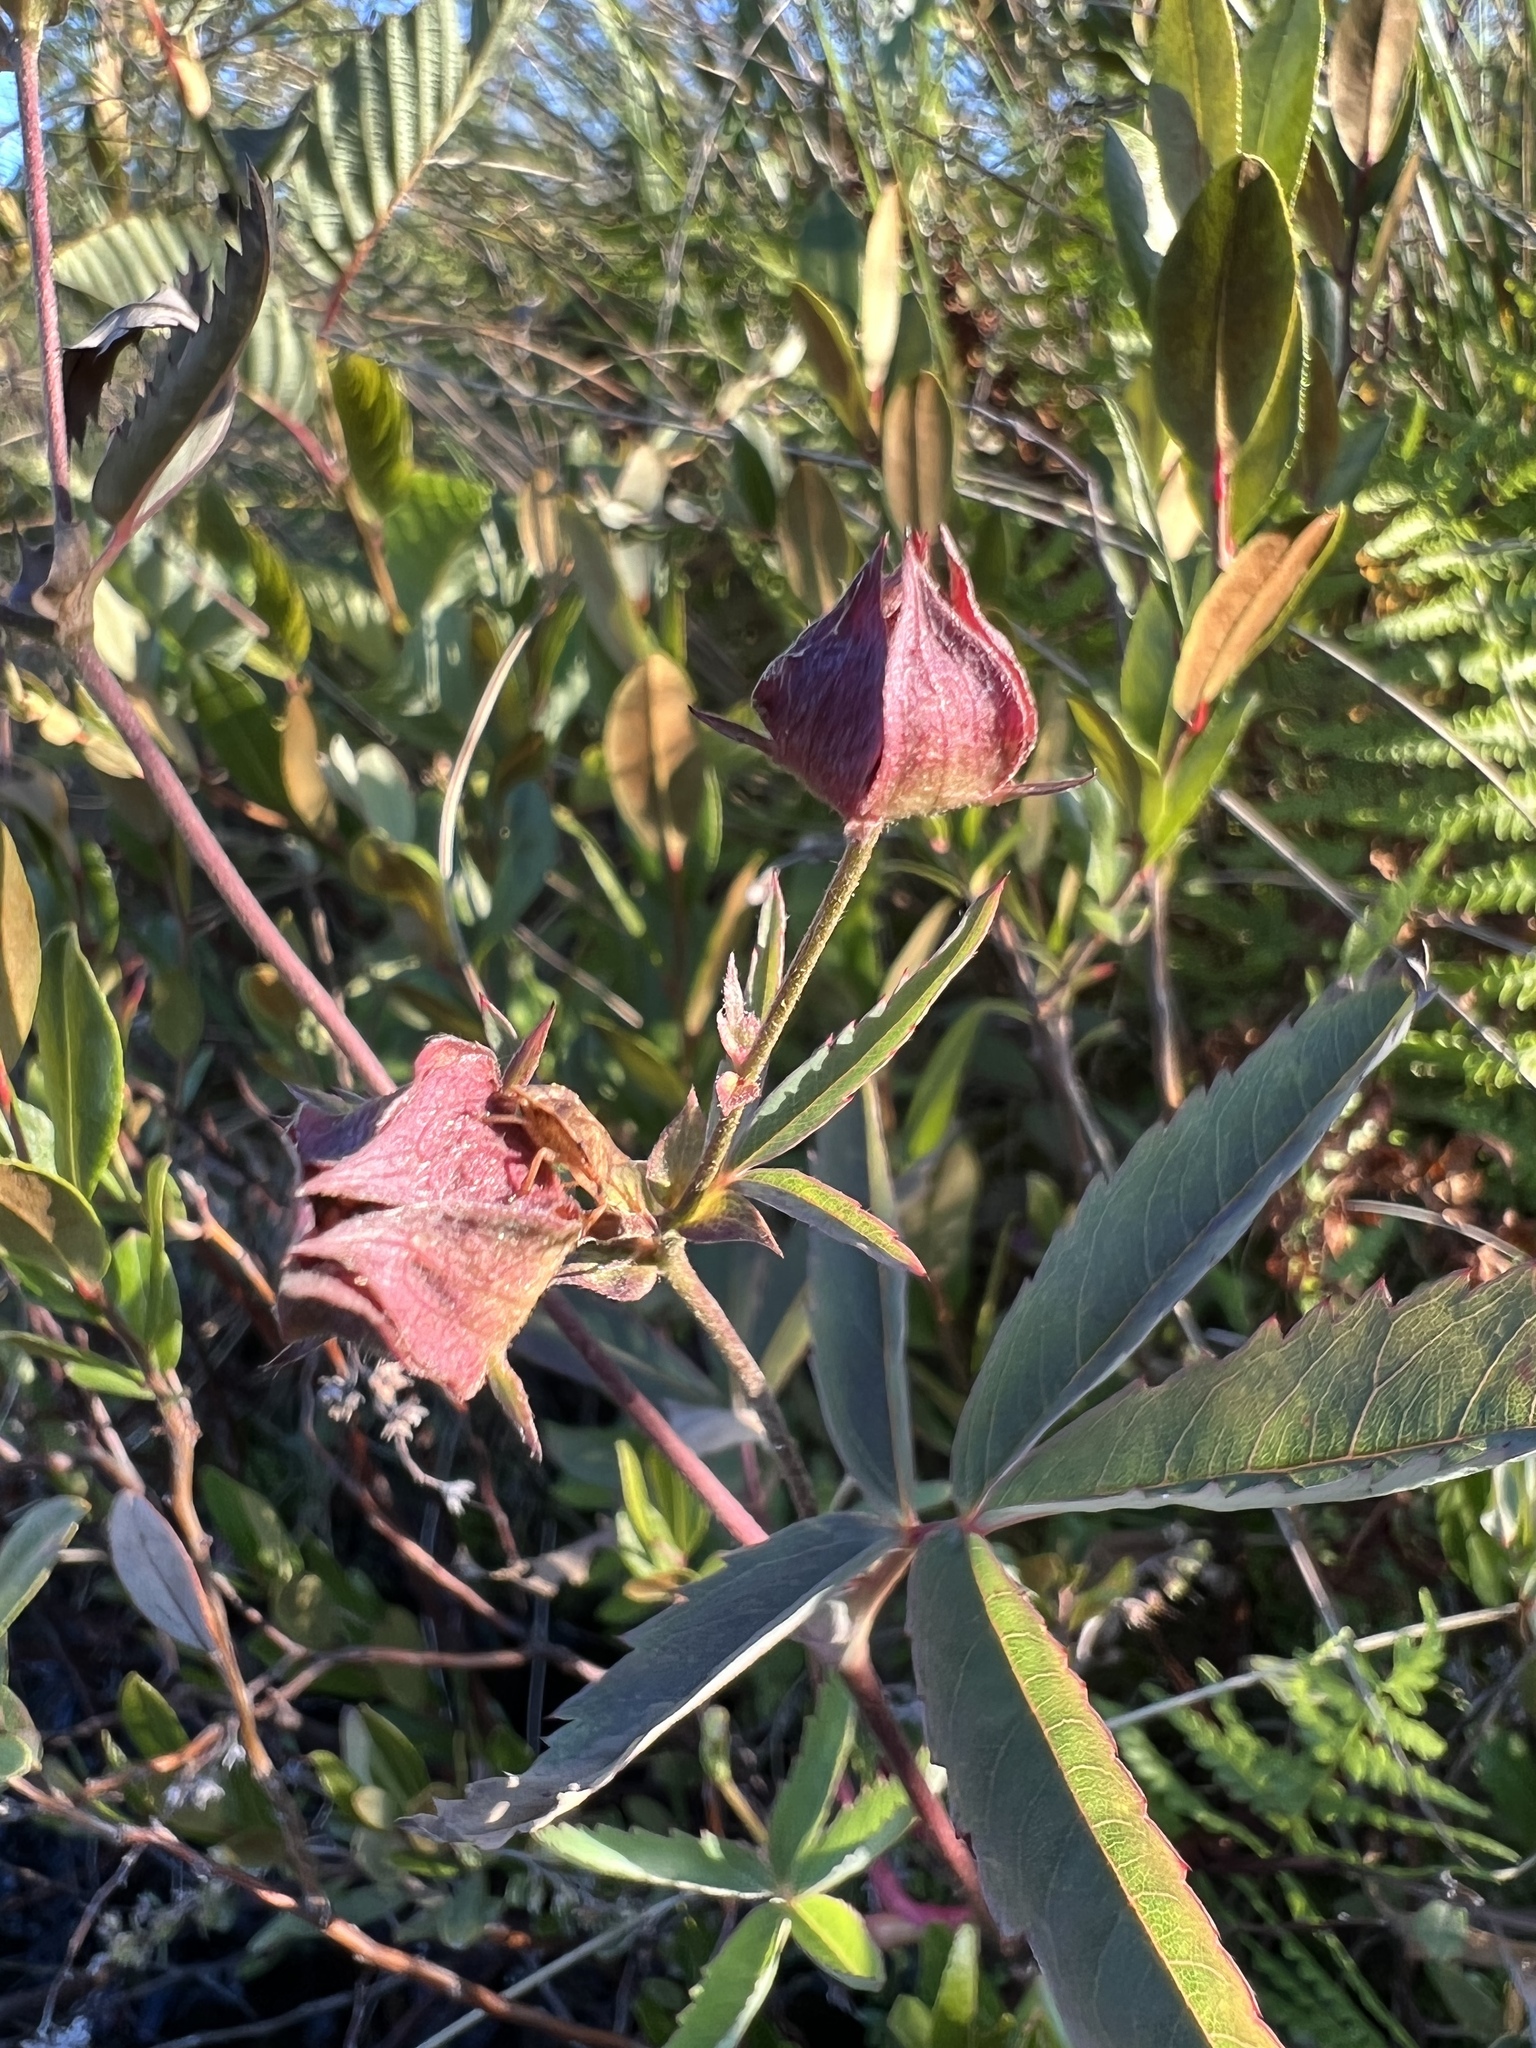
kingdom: Plantae
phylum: Tracheophyta
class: Magnoliopsida
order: Rosales
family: Rosaceae
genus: Comarum
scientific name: Comarum palustre
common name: Marsh cinquefoil
